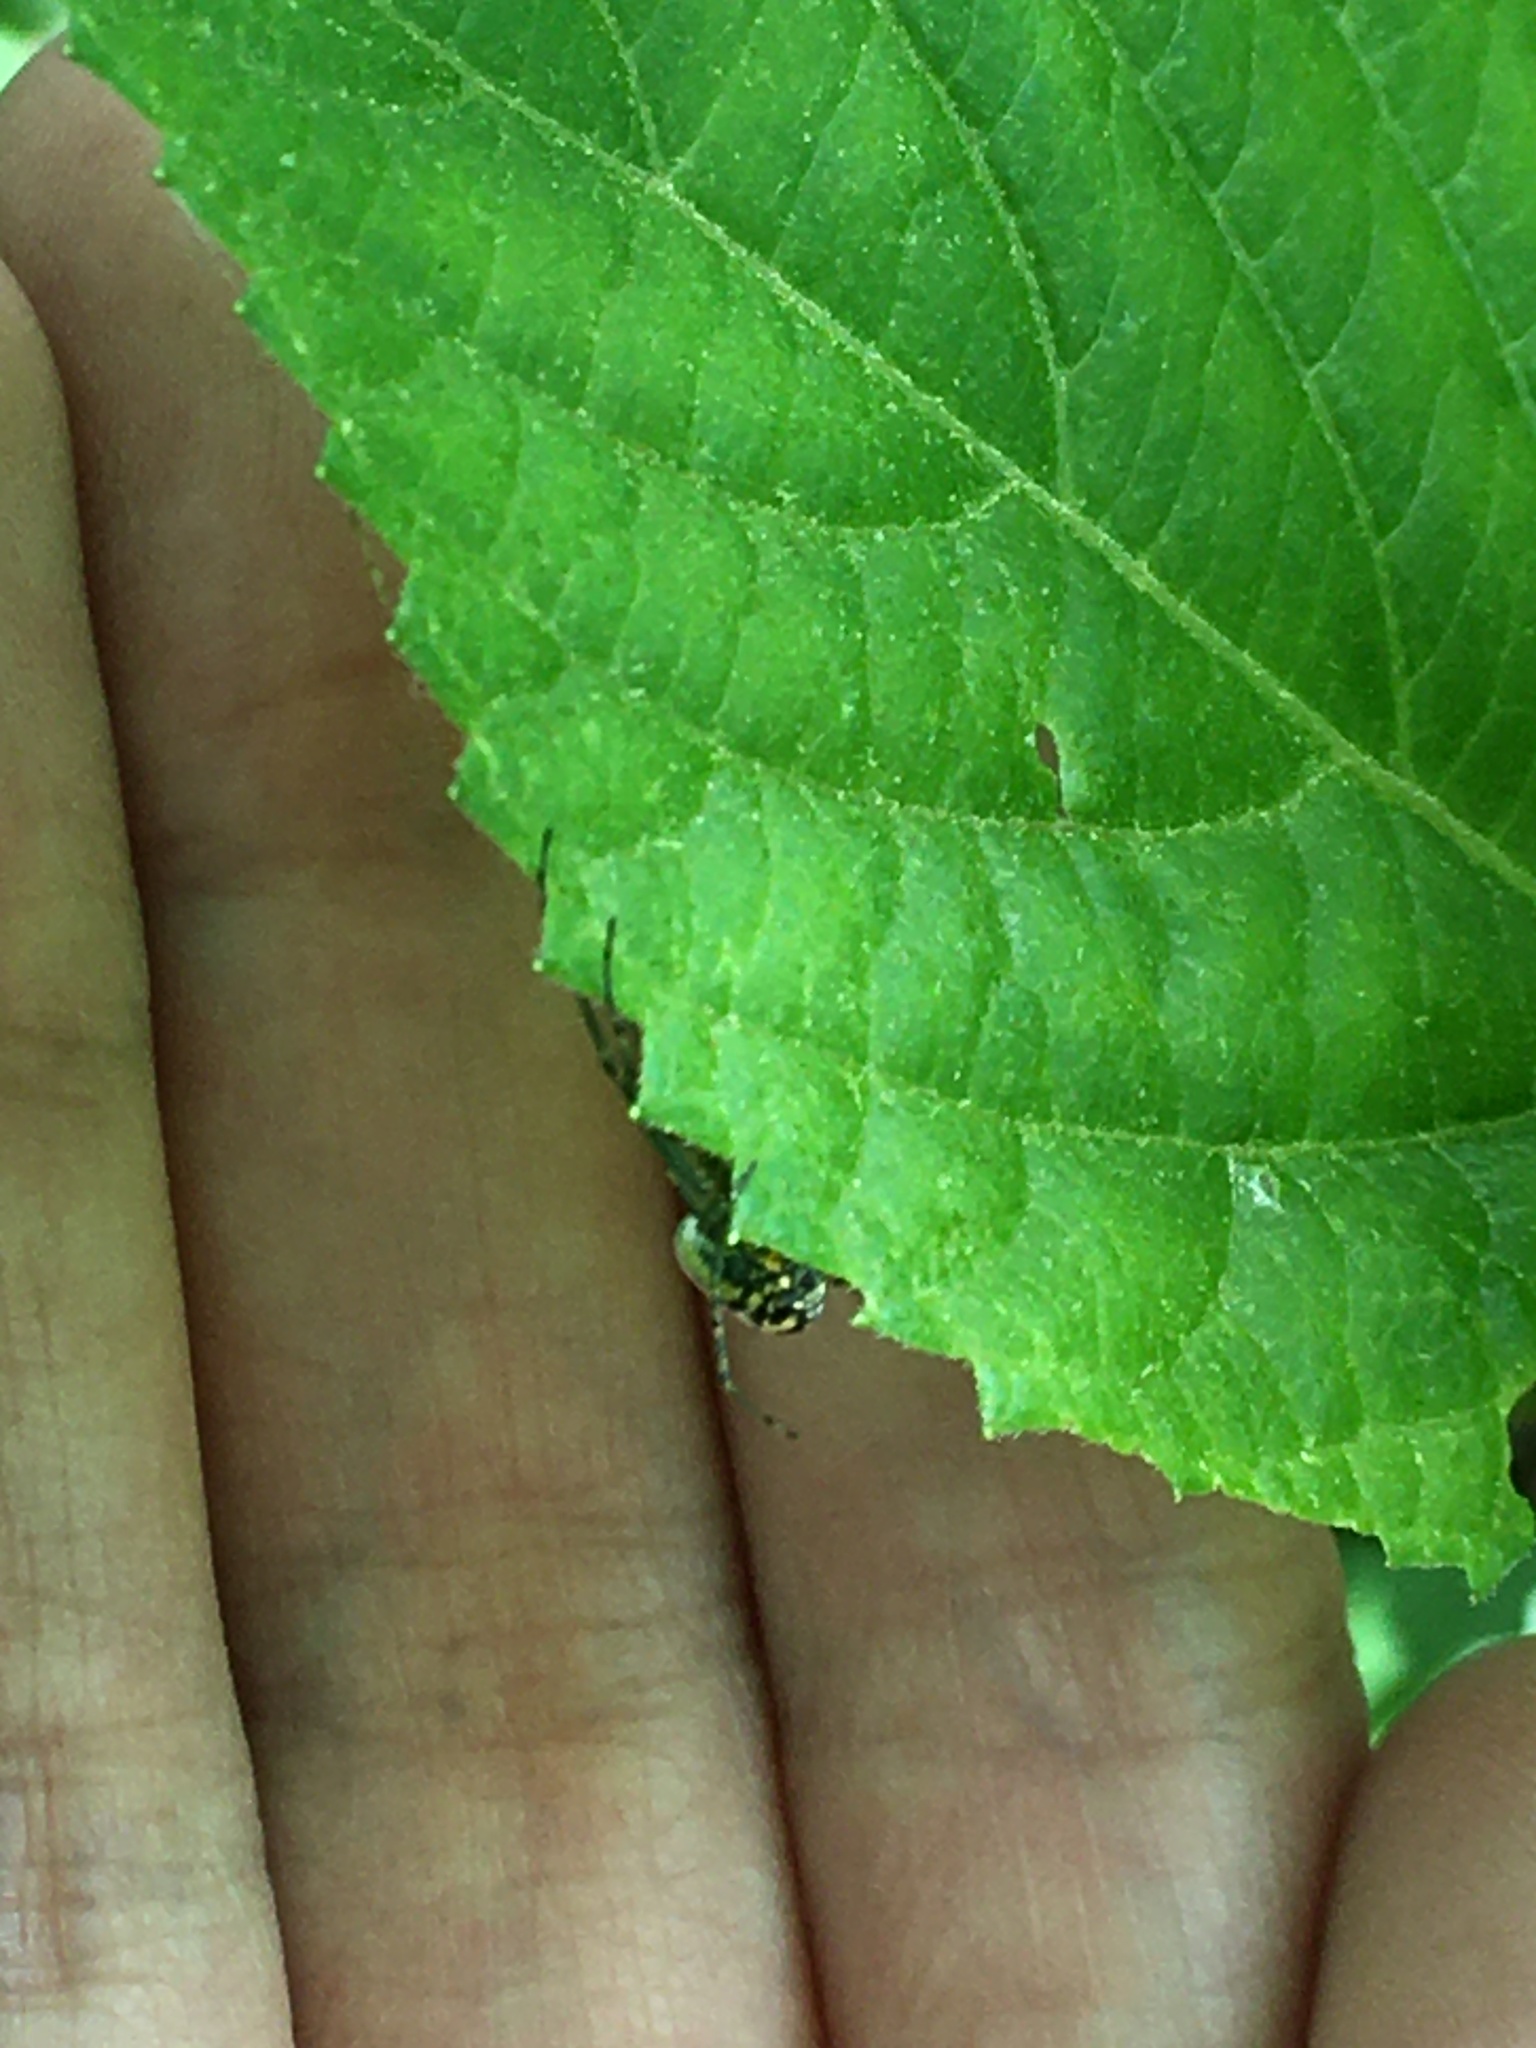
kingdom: Animalia
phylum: Arthropoda
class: Arachnida
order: Araneae
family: Tetragnathidae
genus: Leucauge
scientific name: Leucauge venusta
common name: Longjawed orb weavers
